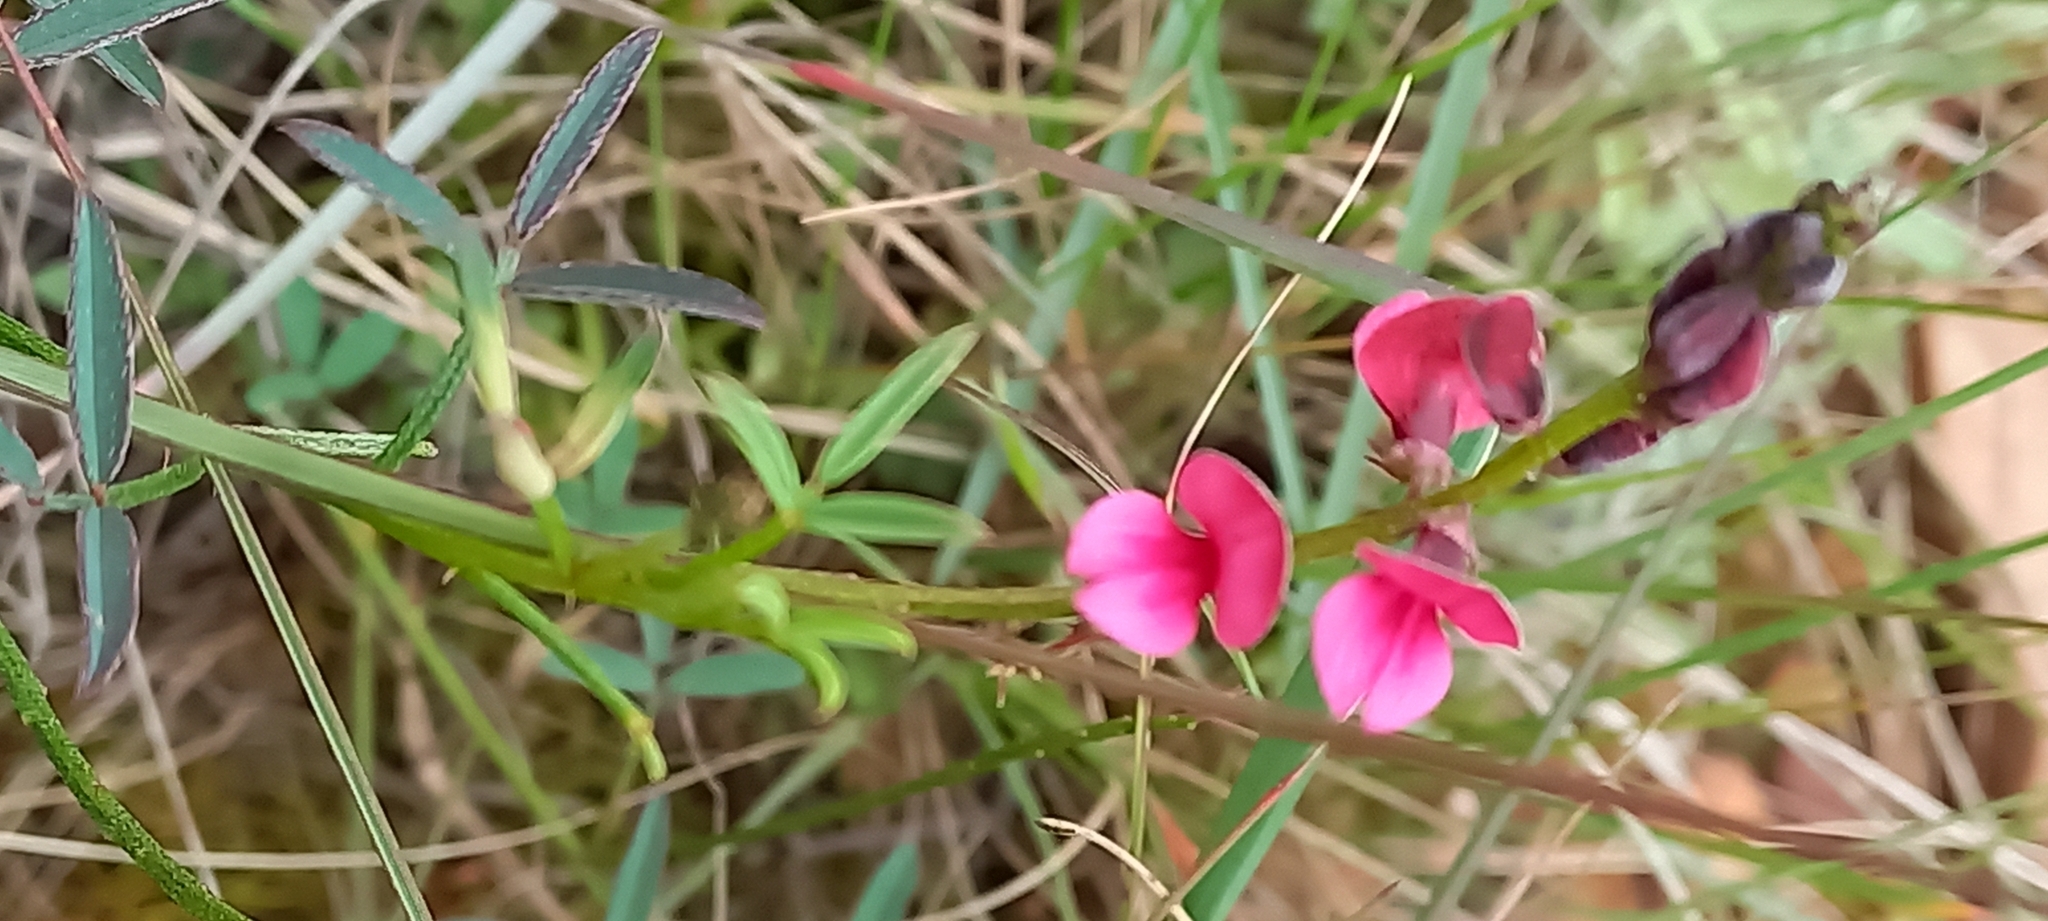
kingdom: Plantae
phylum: Tracheophyta
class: Magnoliopsida
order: Fabales
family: Fabaceae
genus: Indigofera
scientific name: Indigofera heterophylla
